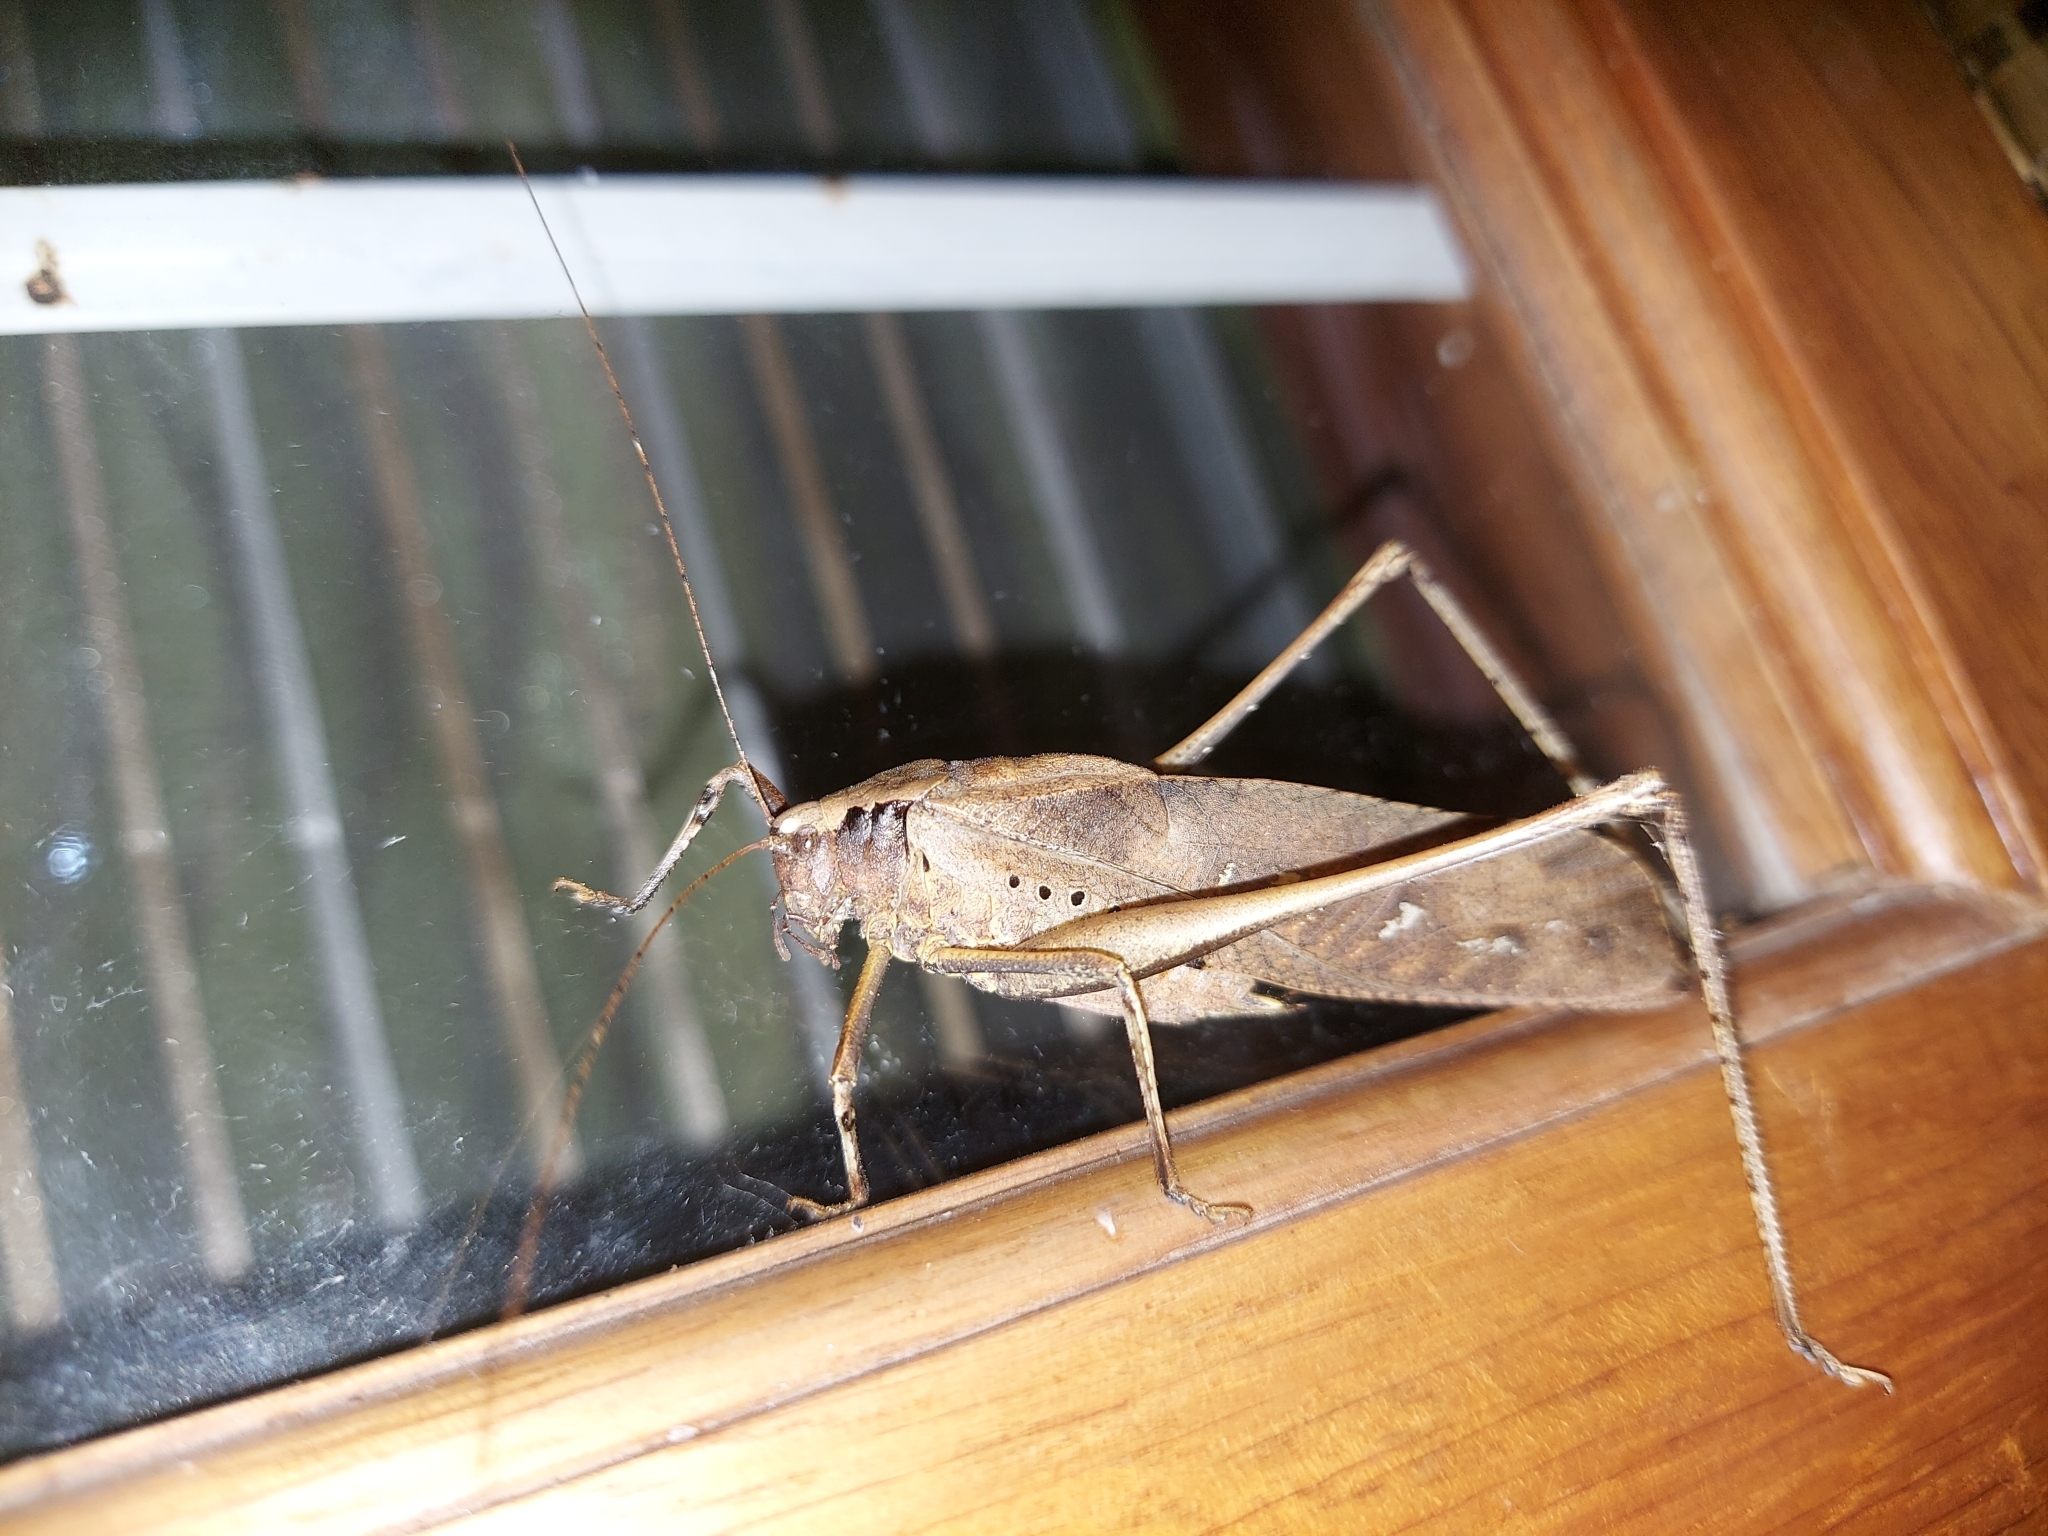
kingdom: Animalia
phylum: Arthropoda
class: Insecta
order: Orthoptera
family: Tettigoniidae
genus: Mecopoda
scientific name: Mecopoda elongata
